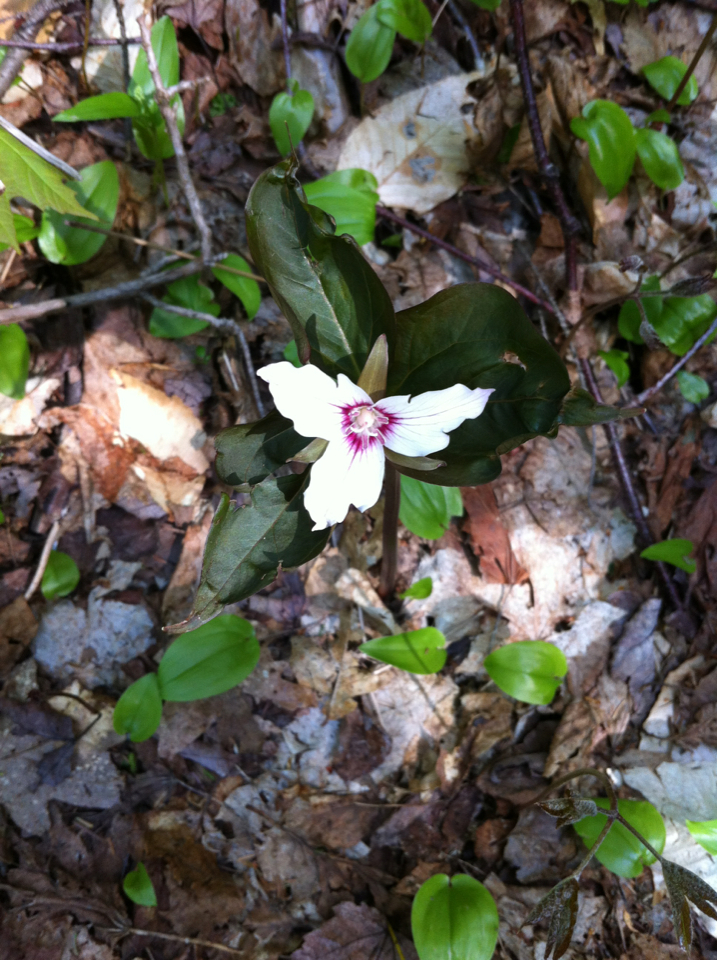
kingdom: Plantae
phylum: Tracheophyta
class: Liliopsida
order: Liliales
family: Melanthiaceae
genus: Trillium
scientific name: Trillium undulatum
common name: Paint trillium
